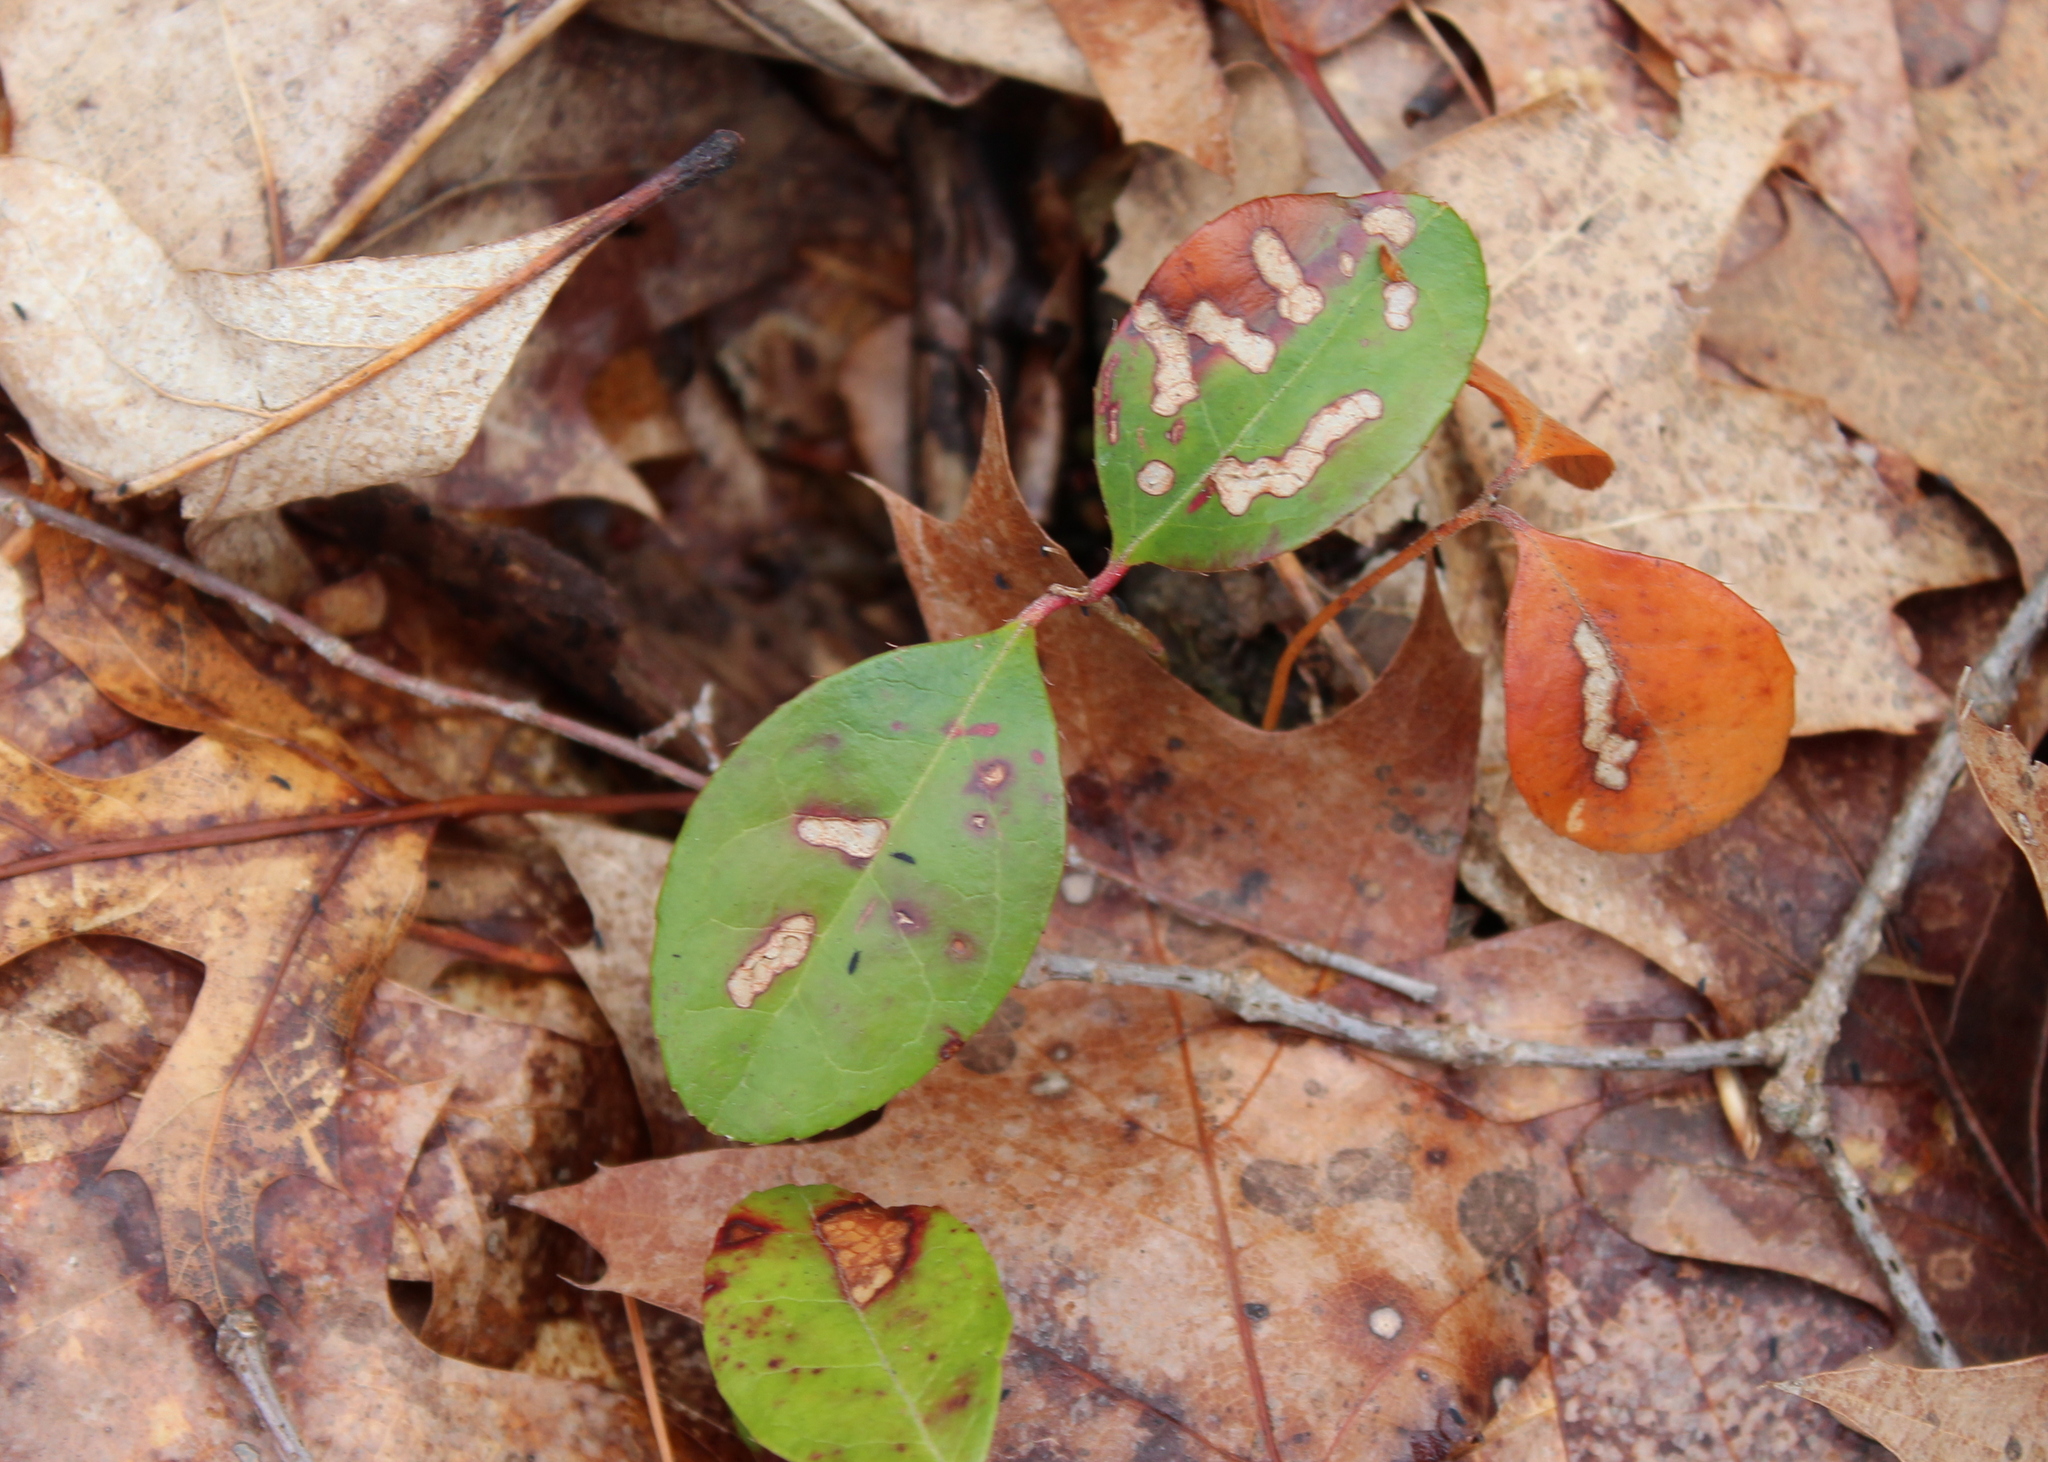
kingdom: Plantae
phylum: Tracheophyta
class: Magnoliopsida
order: Ericales
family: Ericaceae
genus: Gaultheria
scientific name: Gaultheria procumbens
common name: Checkerberry
